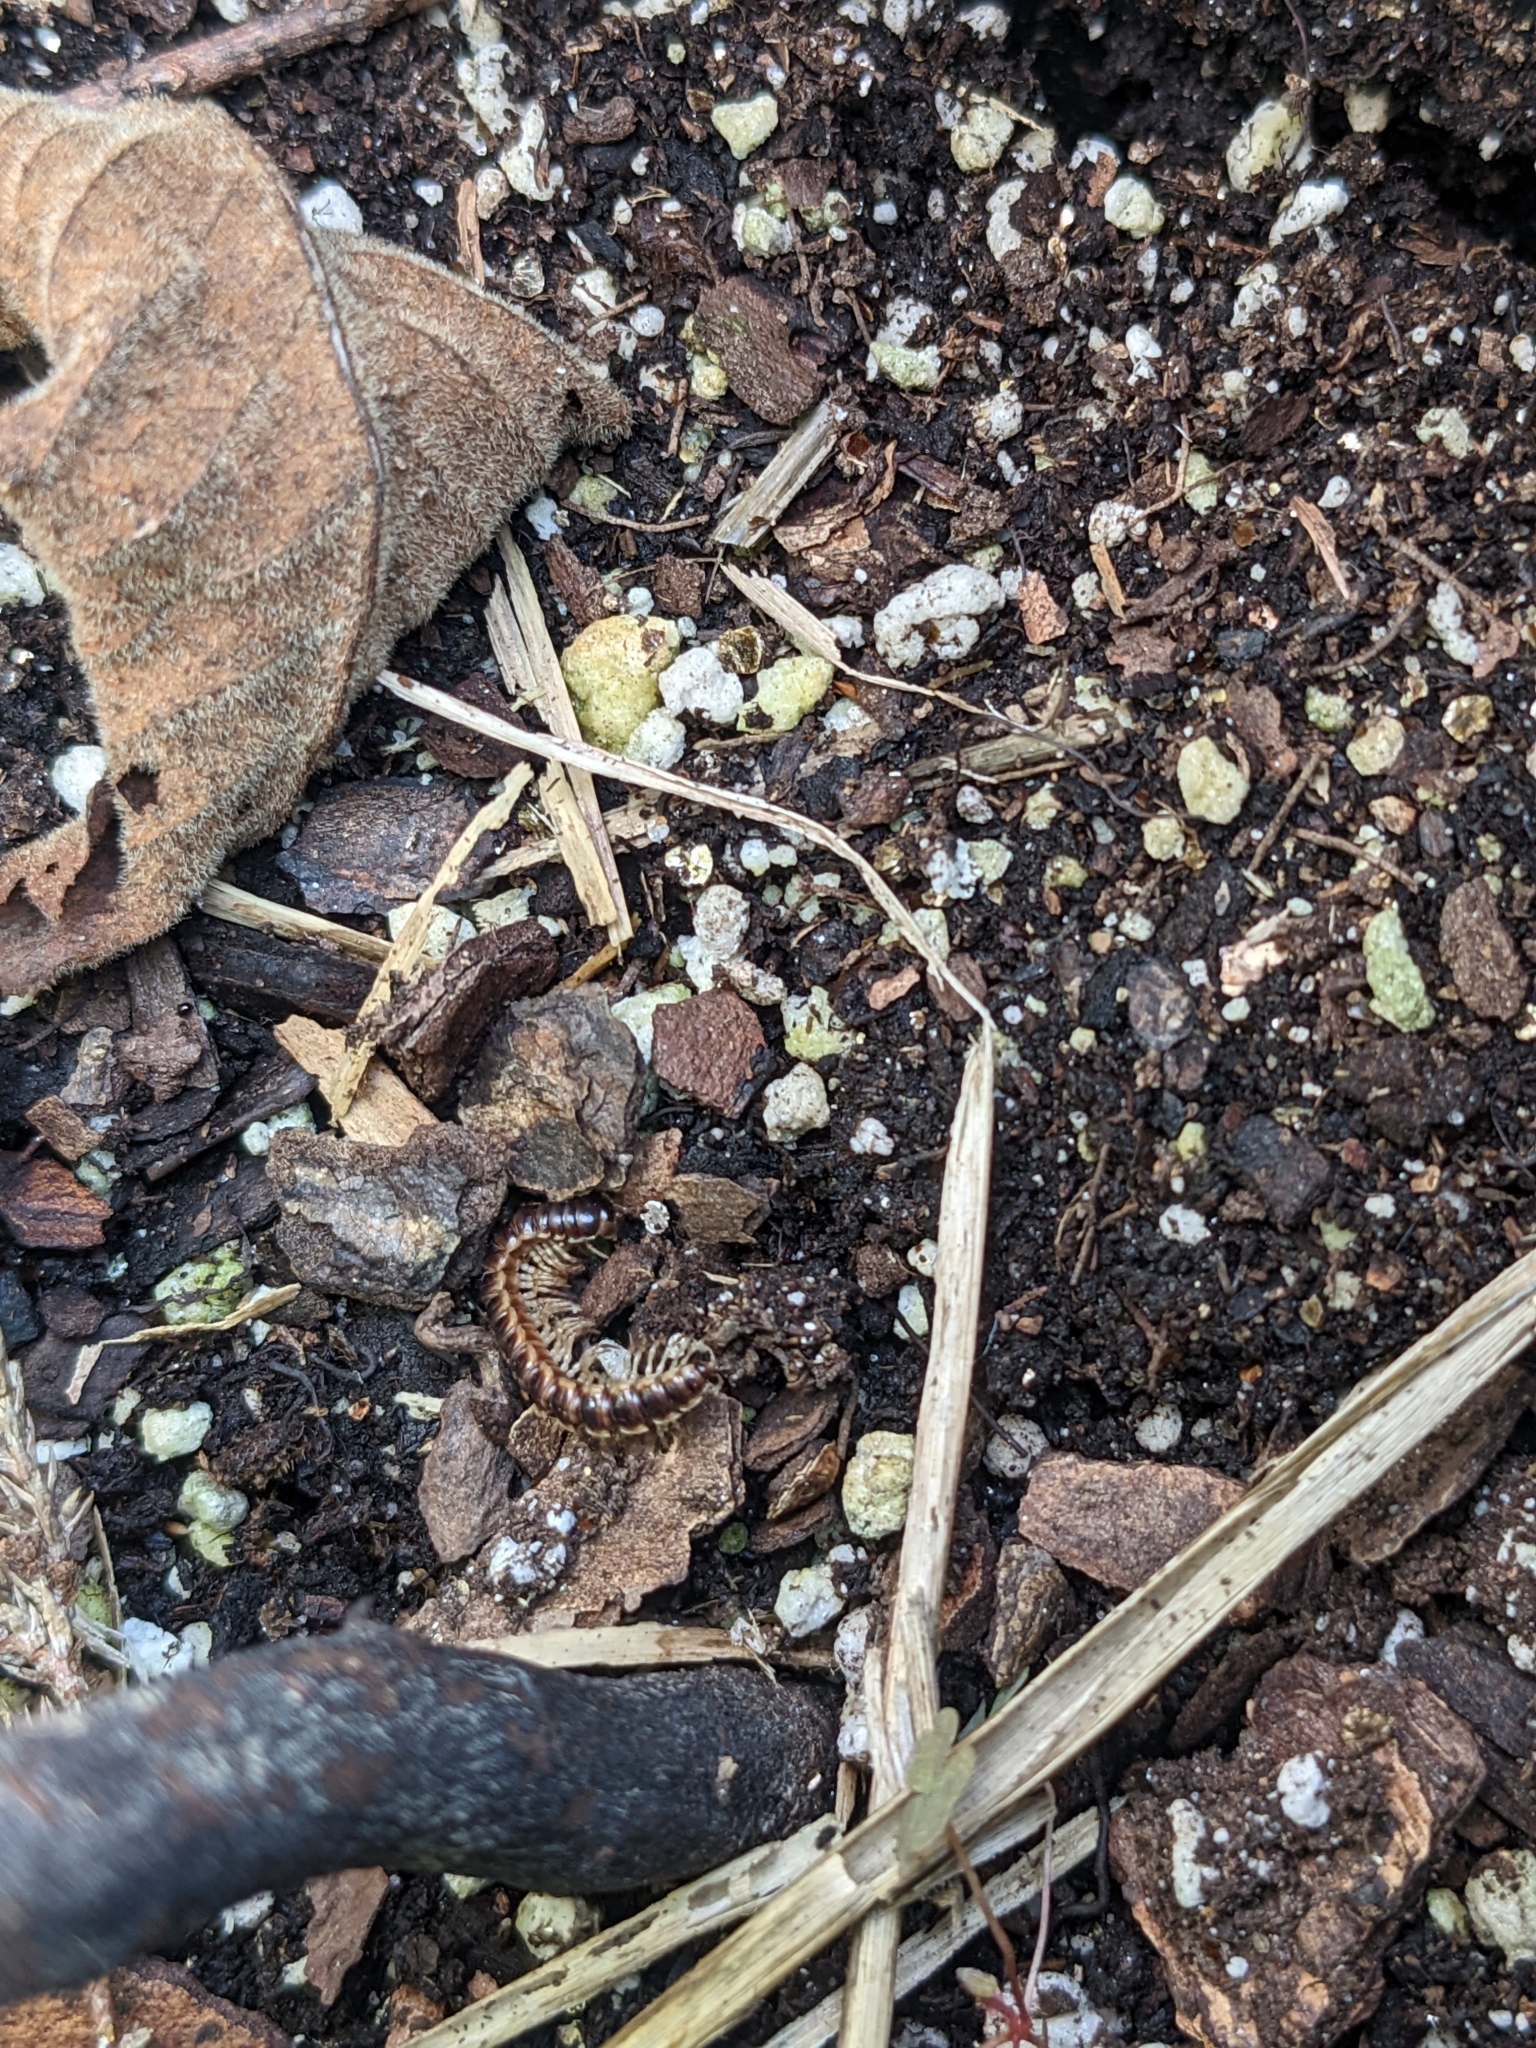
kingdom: Animalia
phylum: Arthropoda
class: Diplopoda
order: Polydesmida
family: Paradoxosomatidae
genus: Oxidus
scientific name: Oxidus gracilis
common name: Greenhouse millipede
